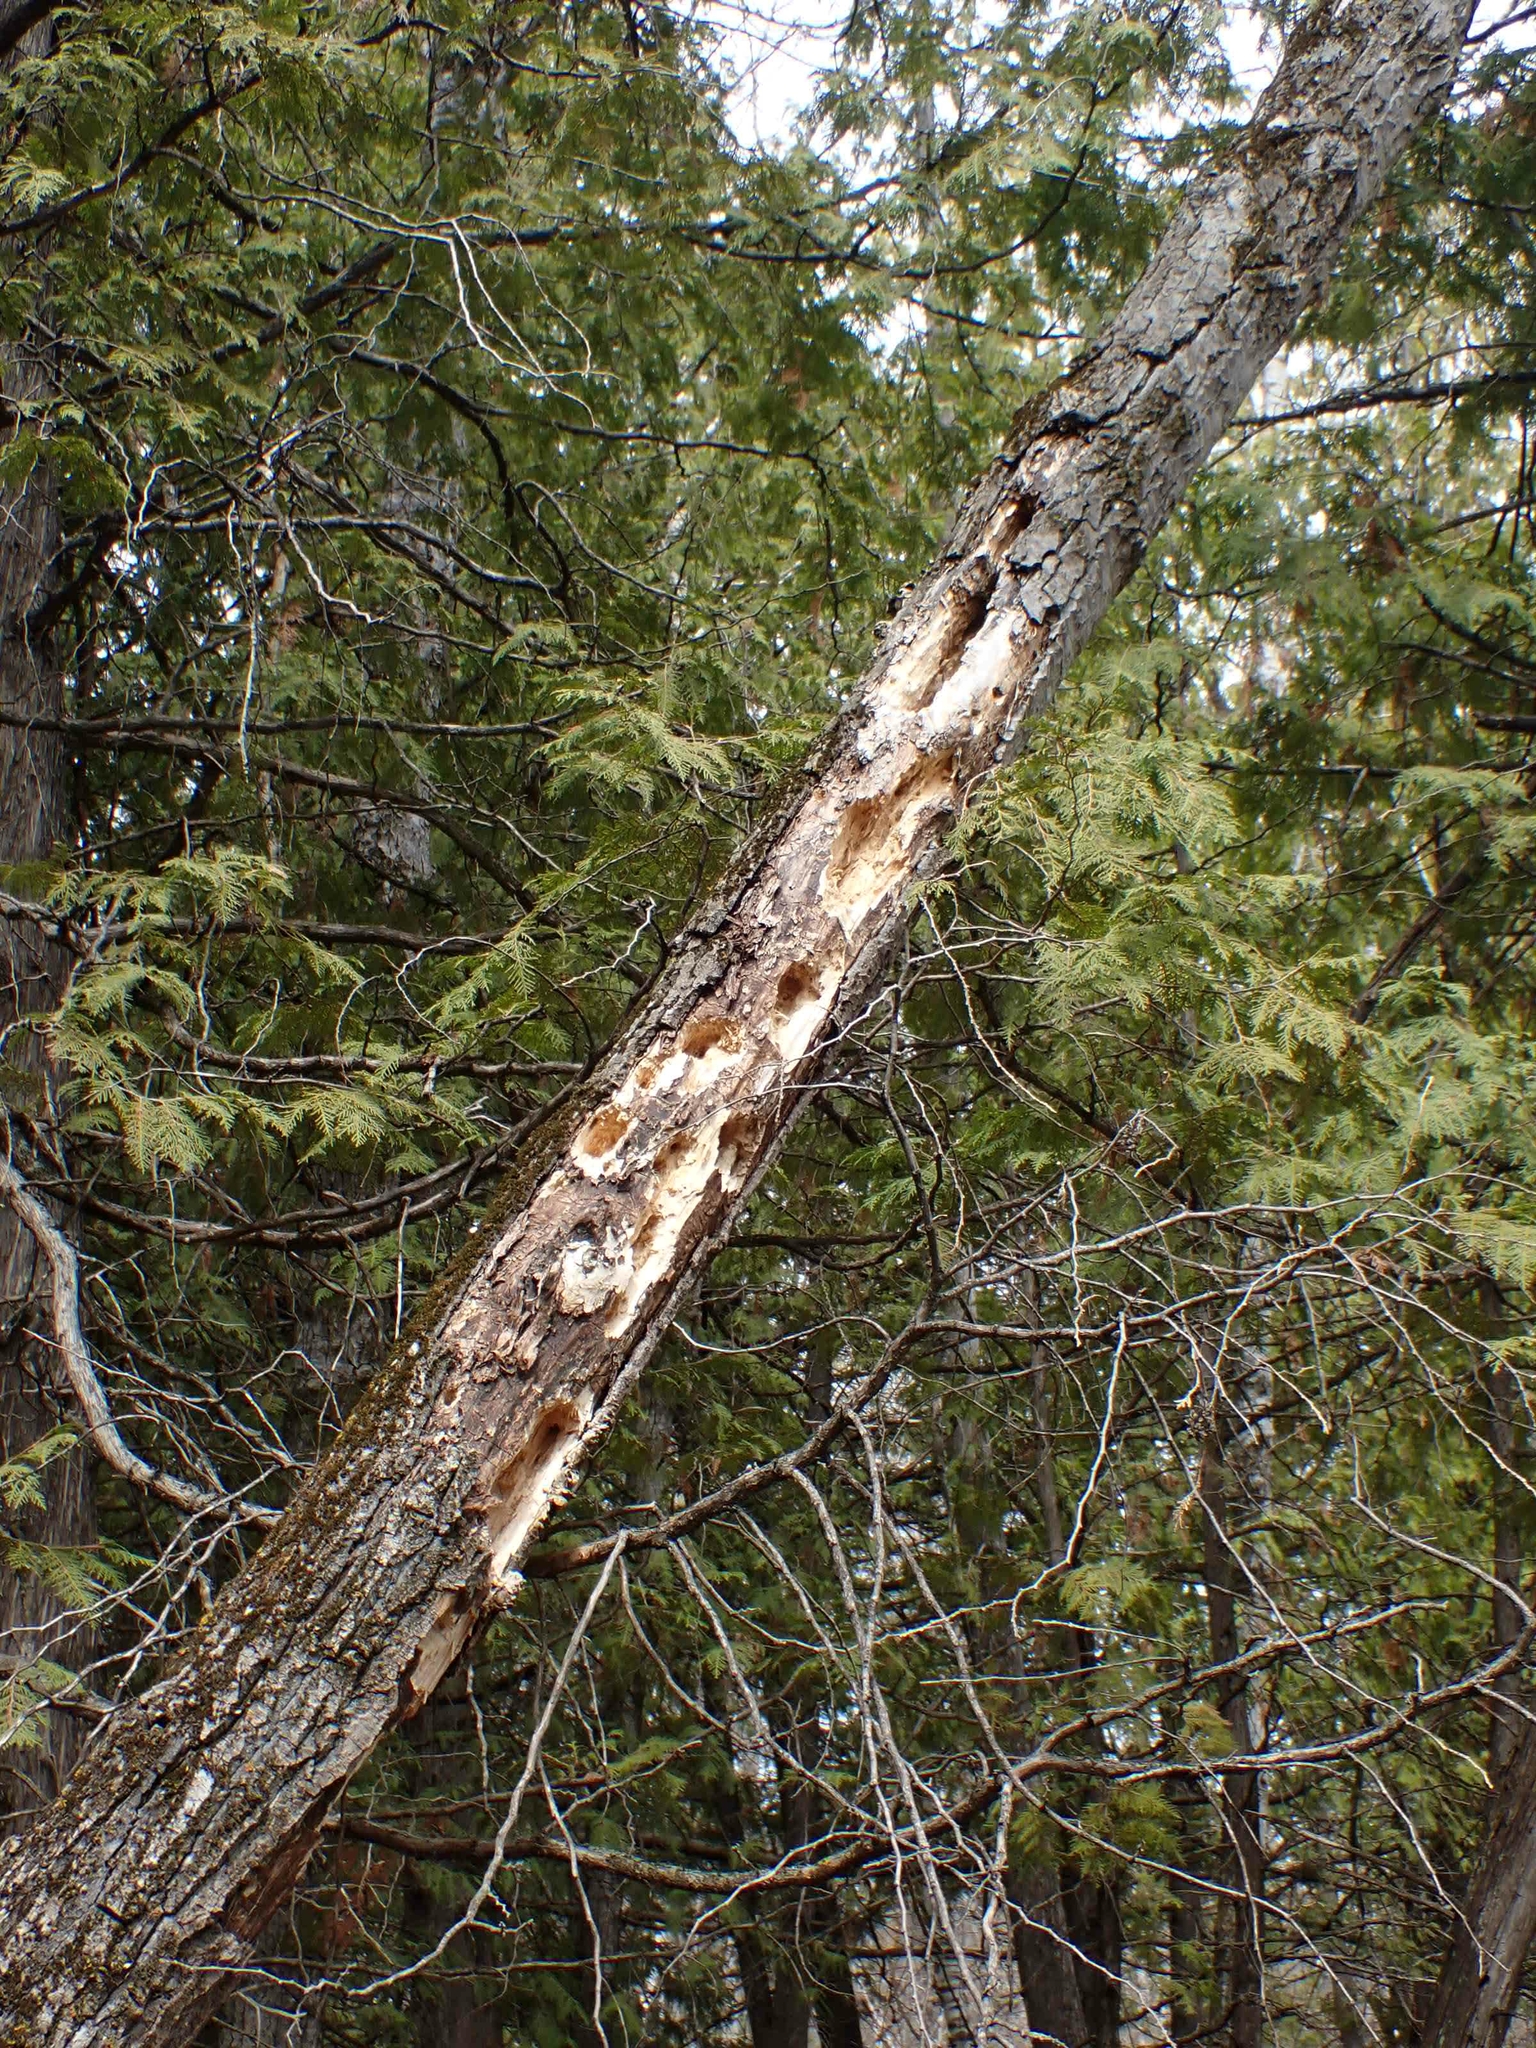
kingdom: Animalia
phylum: Chordata
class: Aves
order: Piciformes
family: Picidae
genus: Dryocopus
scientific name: Dryocopus pileatus
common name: Pileated woodpecker
